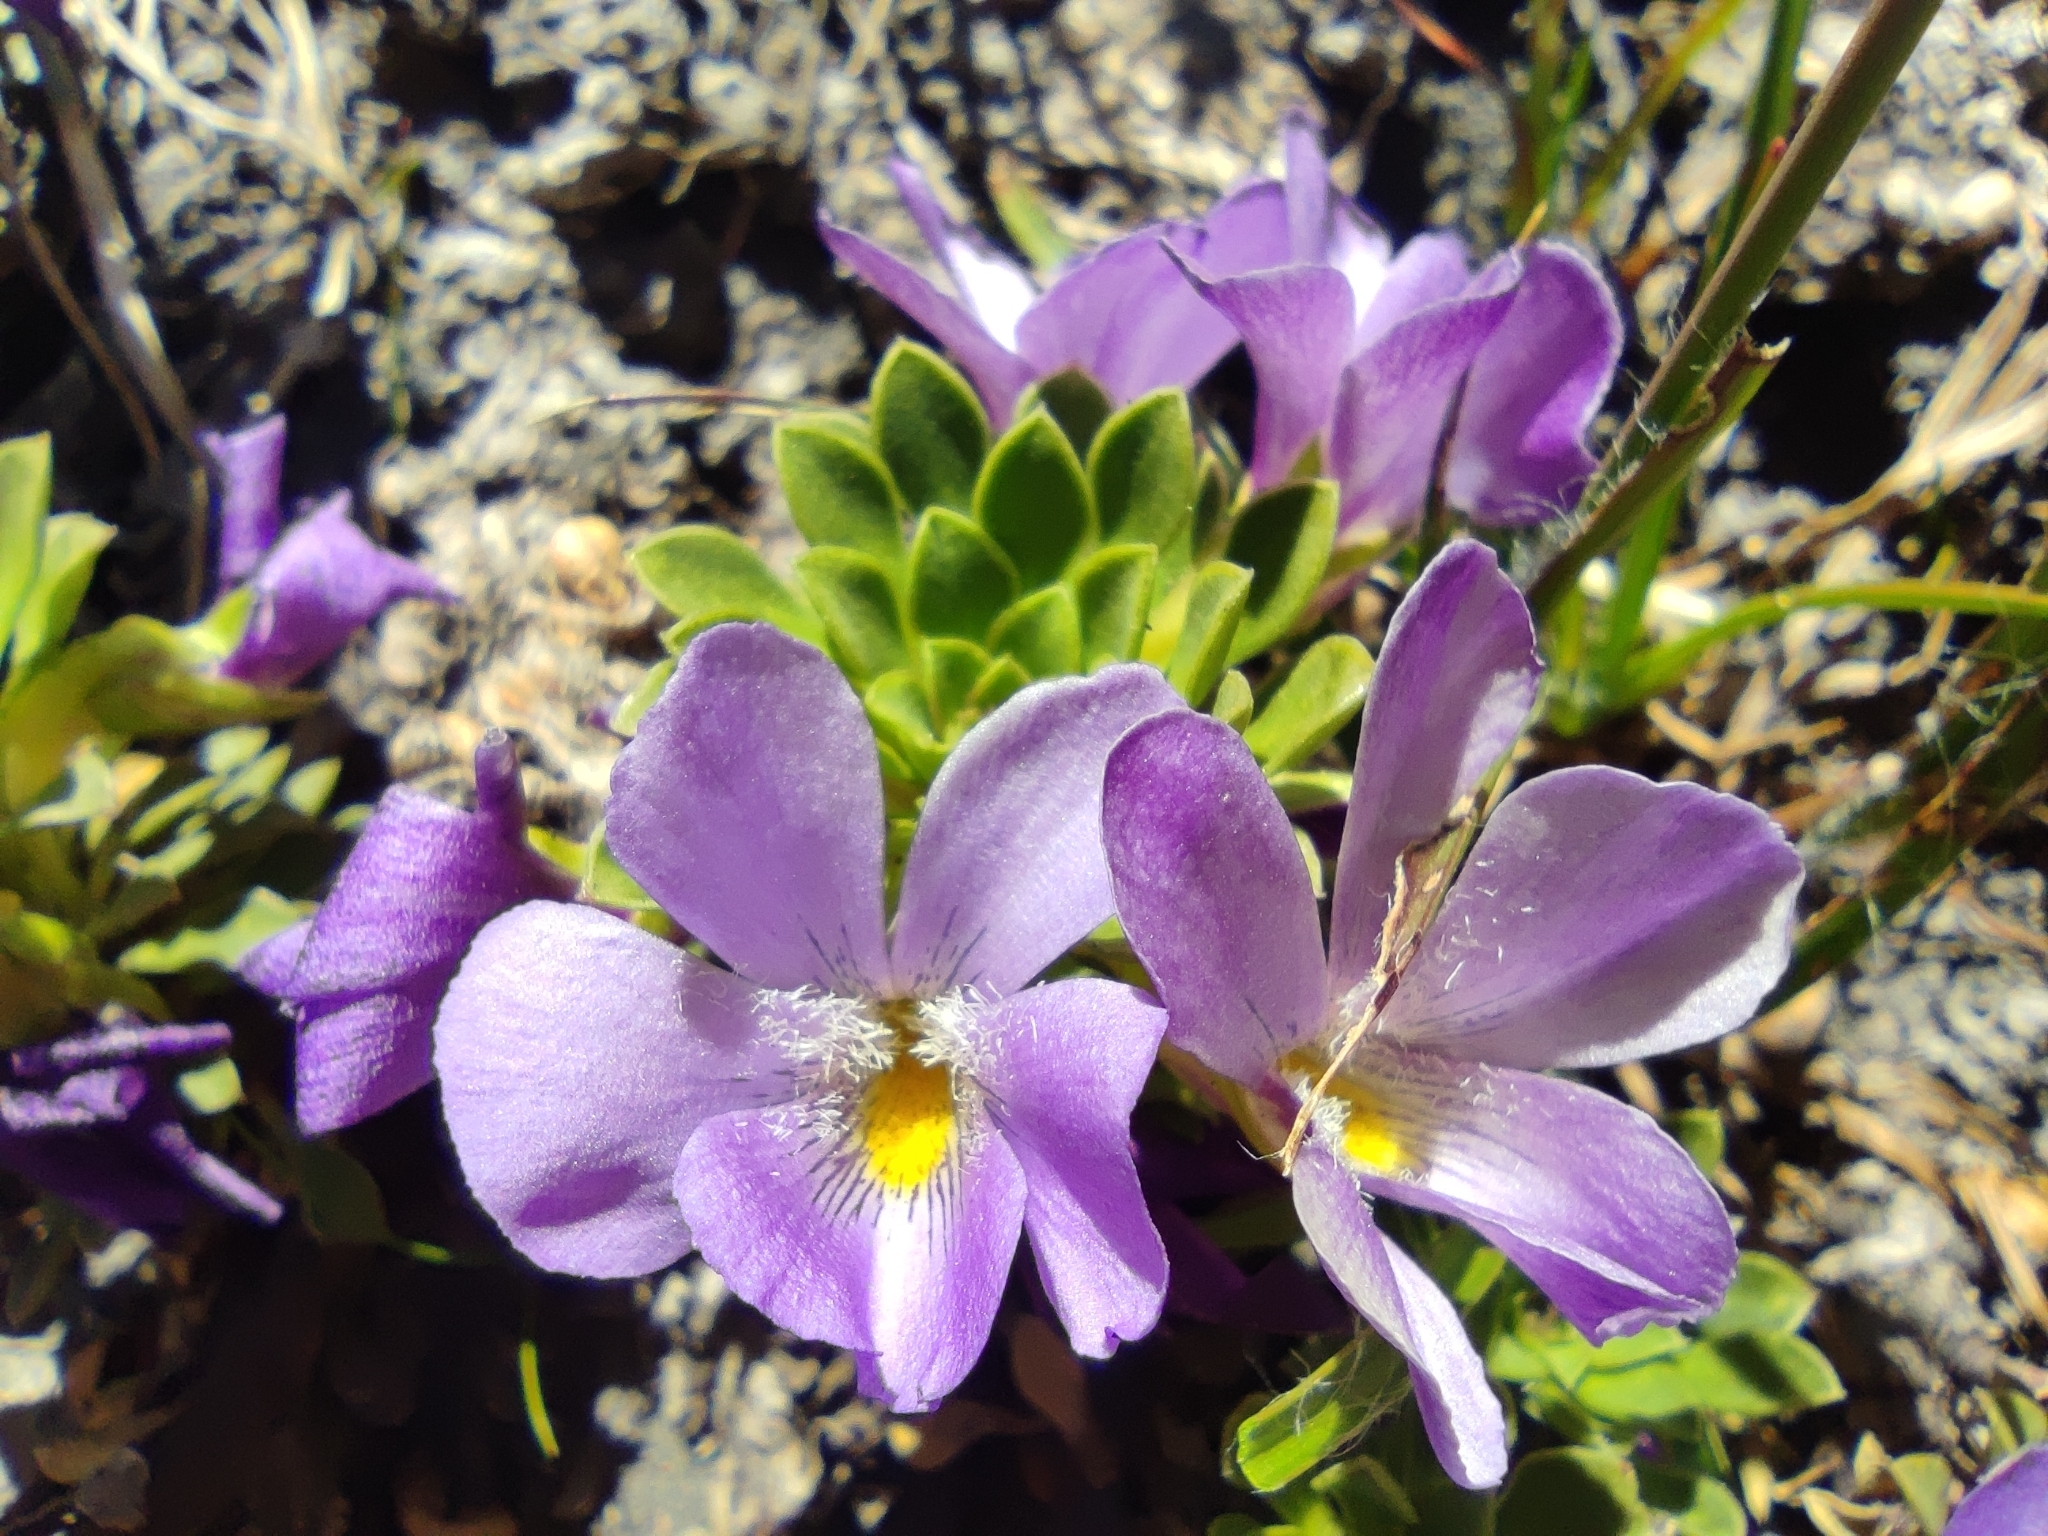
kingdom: Plantae
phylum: Tracheophyta
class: Magnoliopsida
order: Malpighiales
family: Violaceae
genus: Viola
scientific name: Viola cotyledon
